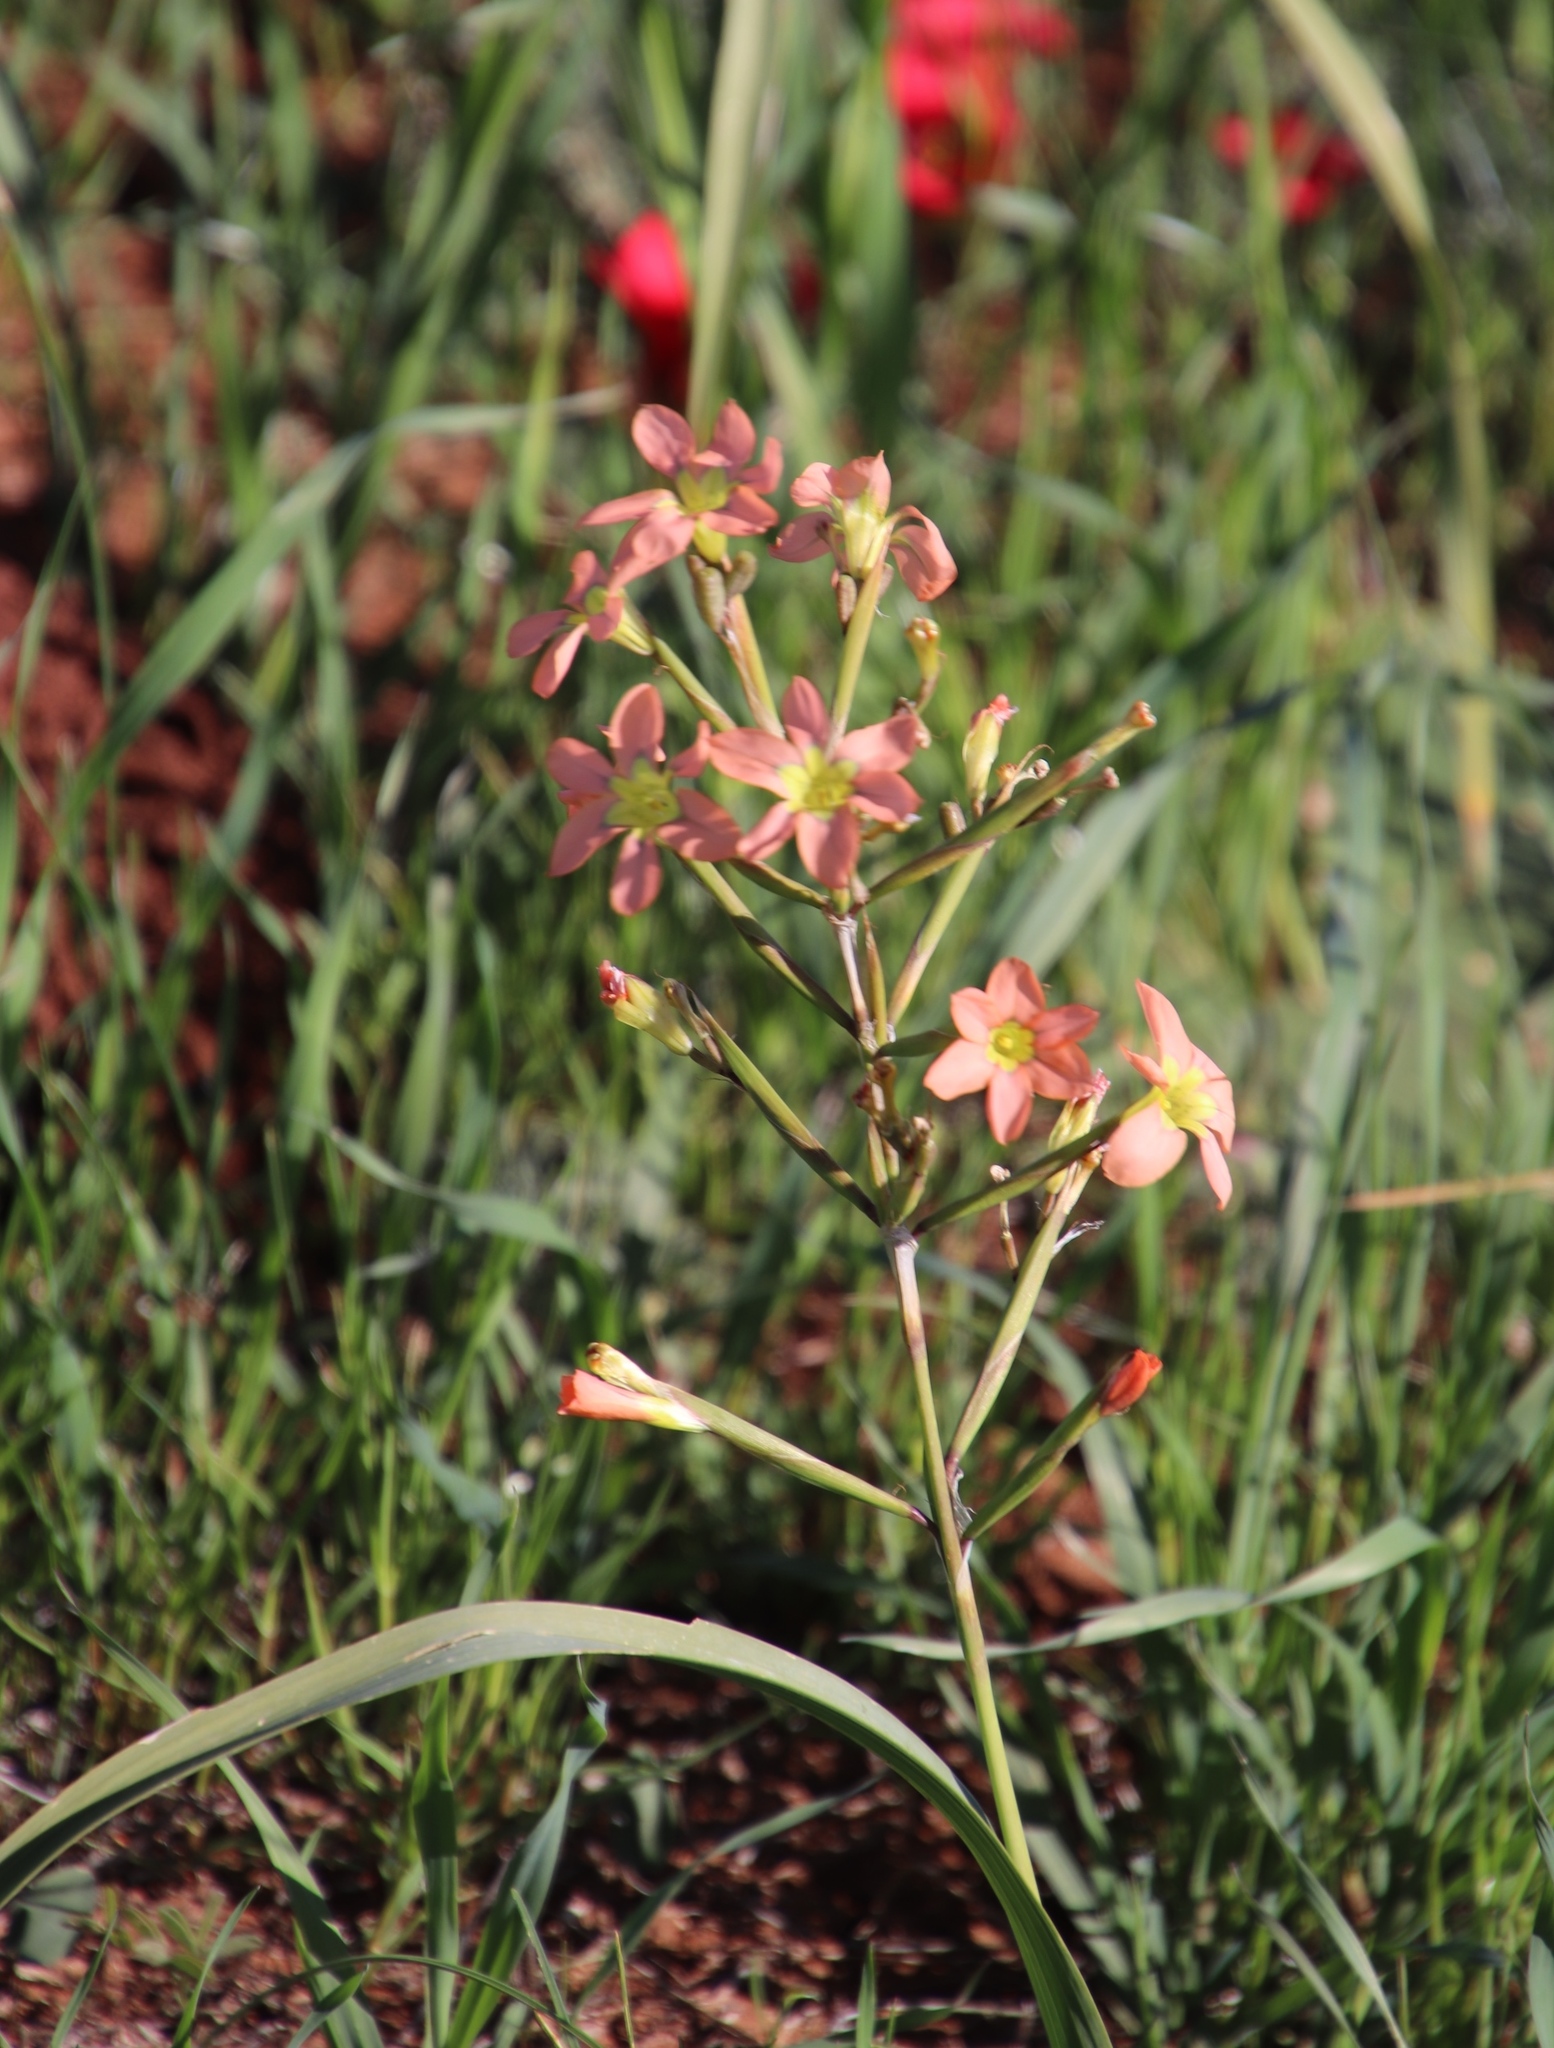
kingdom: Plantae
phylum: Tracheophyta
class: Liliopsida
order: Asparagales
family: Iridaceae
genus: Moraea
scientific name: Moraea miniata
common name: Two-leaf cape-tulip
